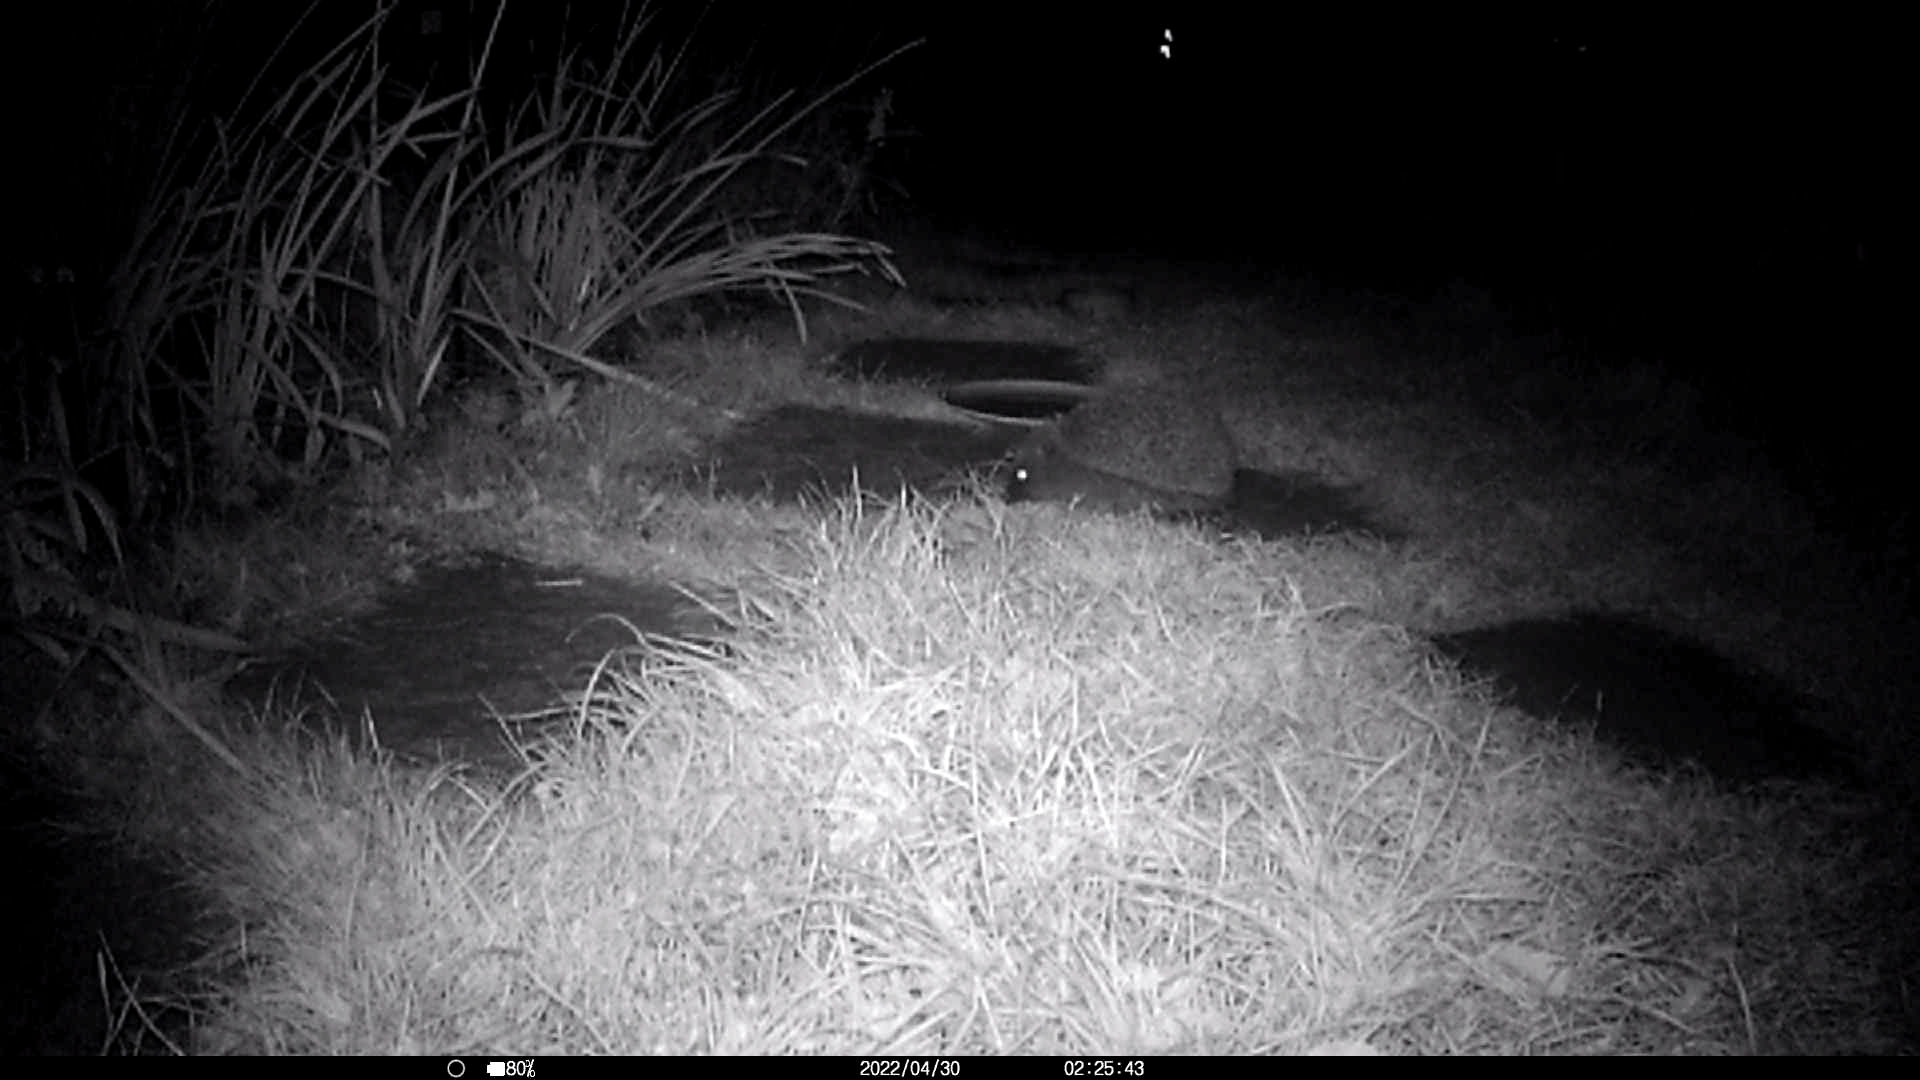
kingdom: Animalia
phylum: Chordata
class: Mammalia
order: Erinaceomorpha
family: Erinaceidae
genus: Erinaceus
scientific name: Erinaceus europaeus
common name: West european hedgehog
